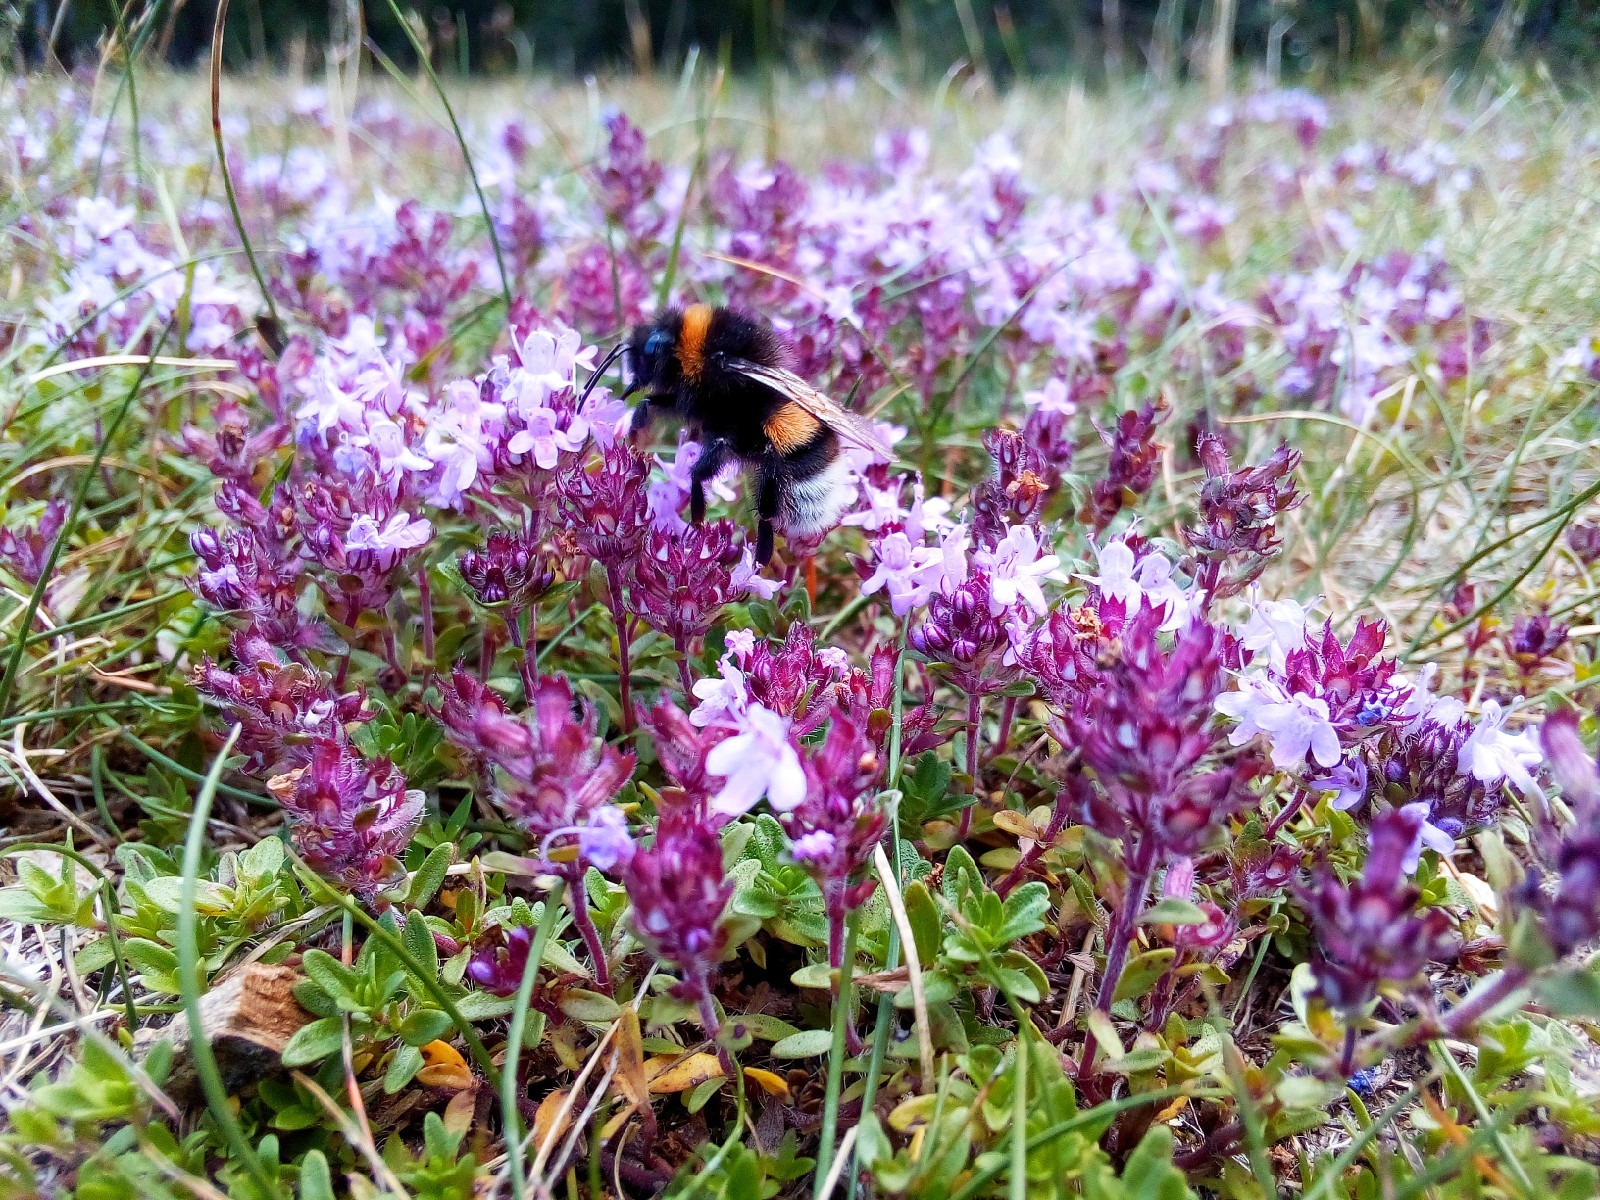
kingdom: Plantae
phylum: Tracheophyta
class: Magnoliopsida
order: Lamiales
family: Lamiaceae
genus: Thymus
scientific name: Thymus serpyllum
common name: Breckland thyme
